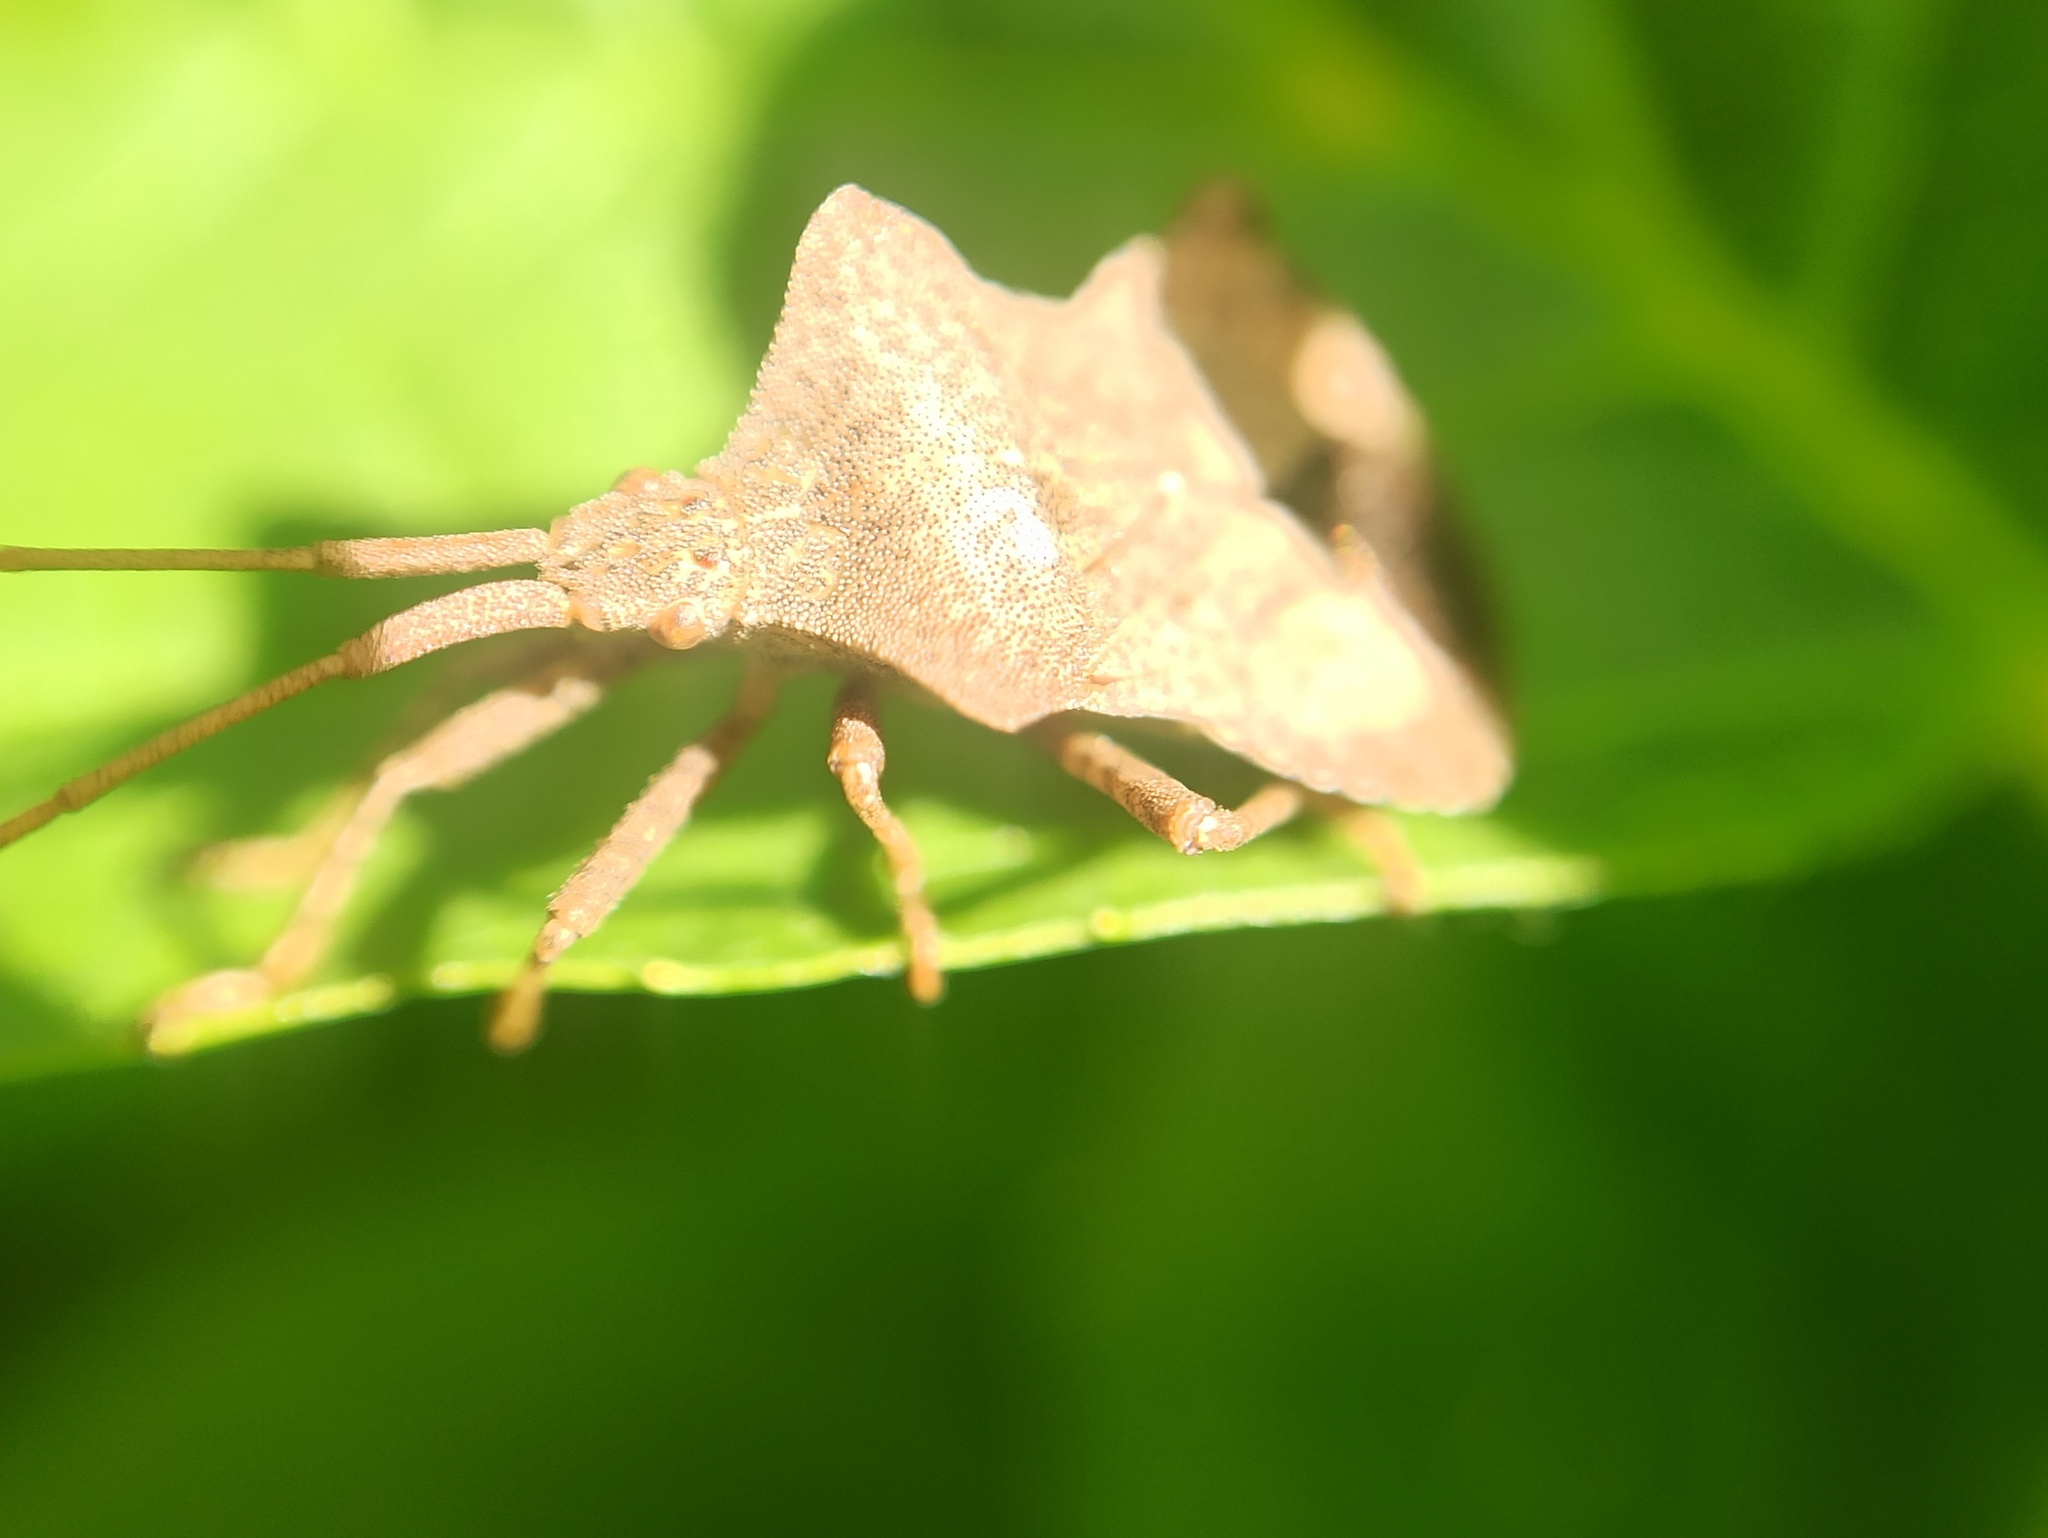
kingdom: Animalia
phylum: Arthropoda
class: Insecta
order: Hemiptera
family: Coreidae
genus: Coreus
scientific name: Coreus marginatus
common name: Dock bug
